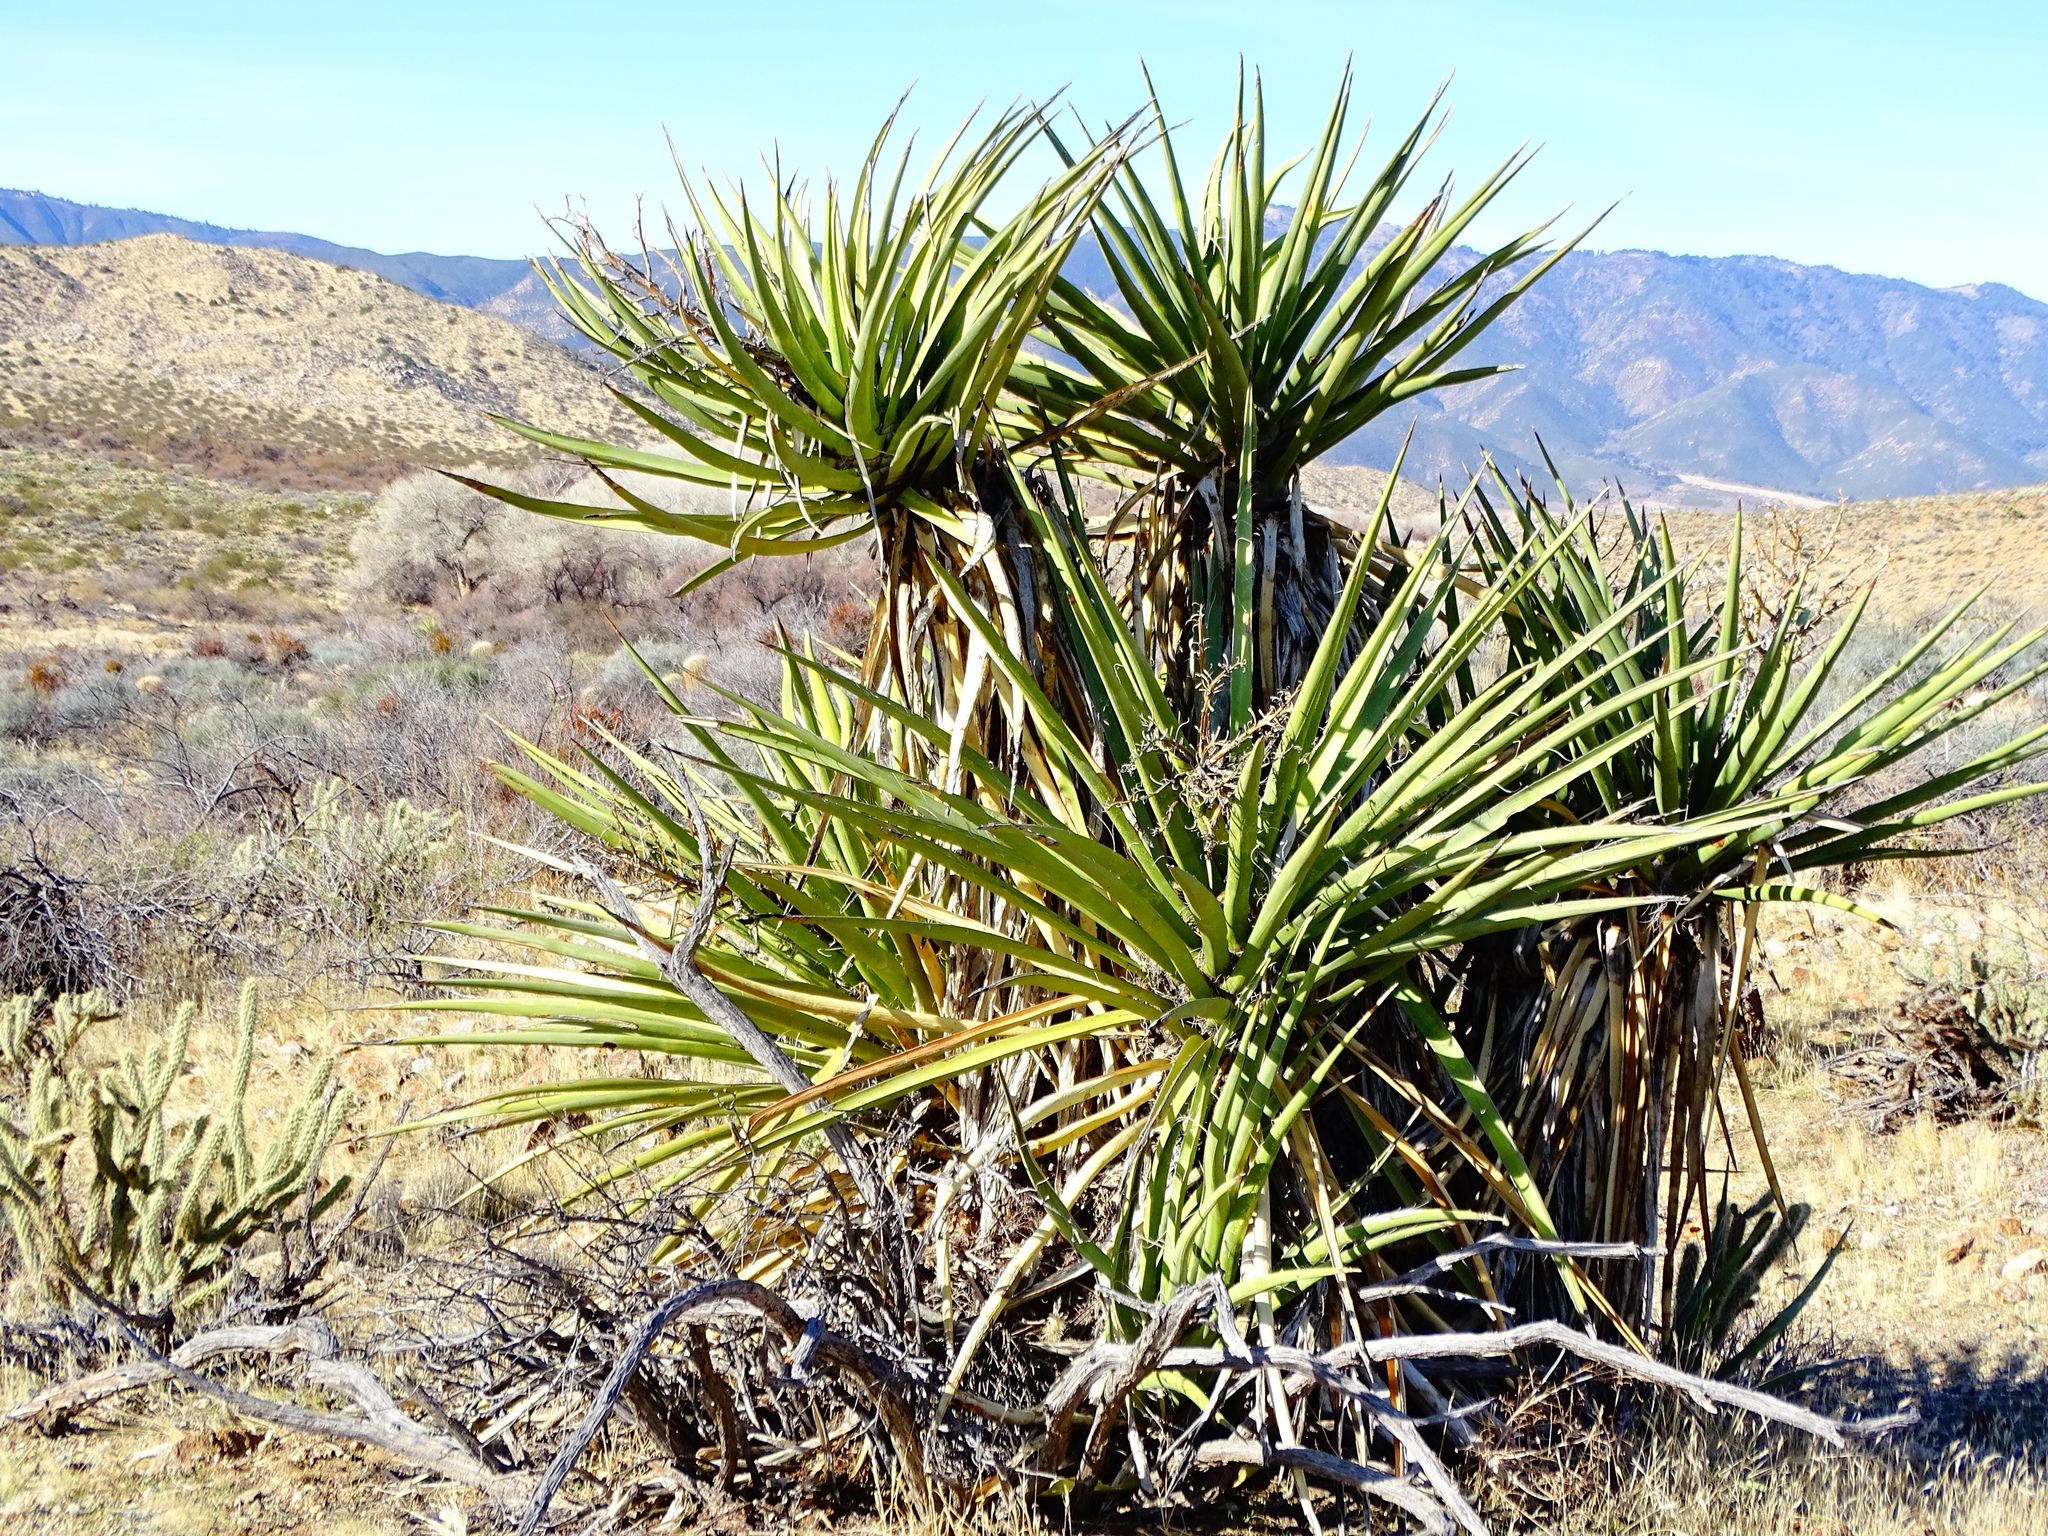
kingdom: Plantae
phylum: Tracheophyta
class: Liliopsida
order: Asparagales
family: Asparagaceae
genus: Yucca
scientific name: Yucca schidigera
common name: Mojave yucca
